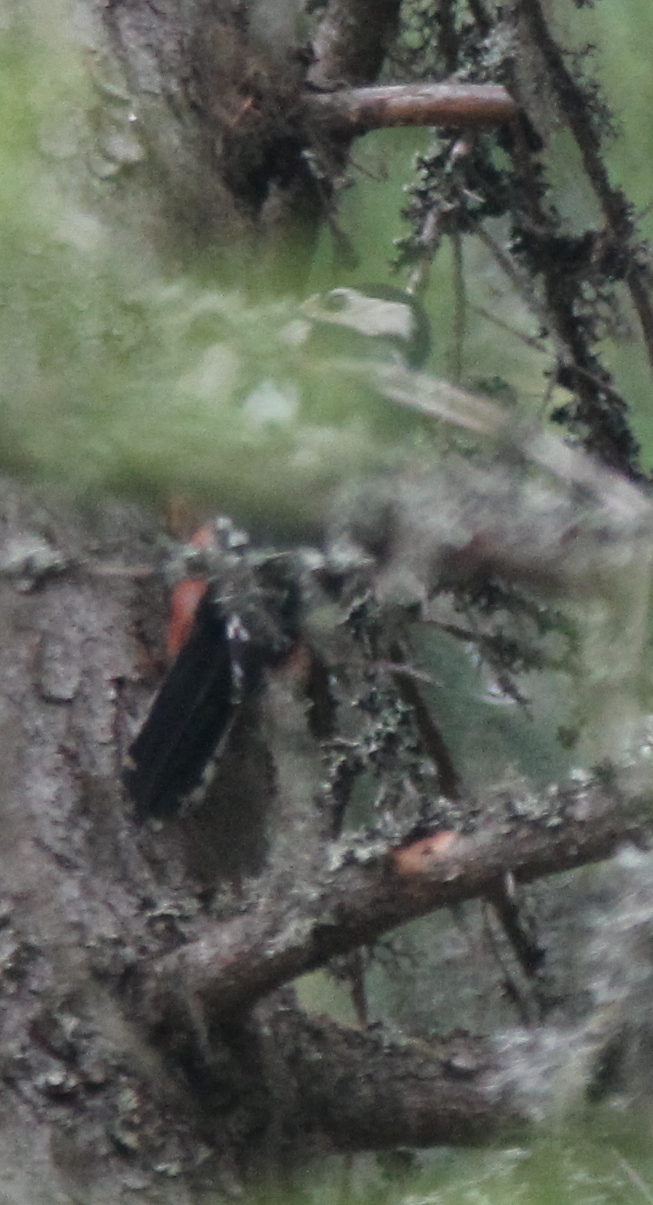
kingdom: Animalia
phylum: Chordata
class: Aves
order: Piciformes
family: Picidae
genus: Dendrocopos
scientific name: Dendrocopos major
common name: Great spotted woodpecker
